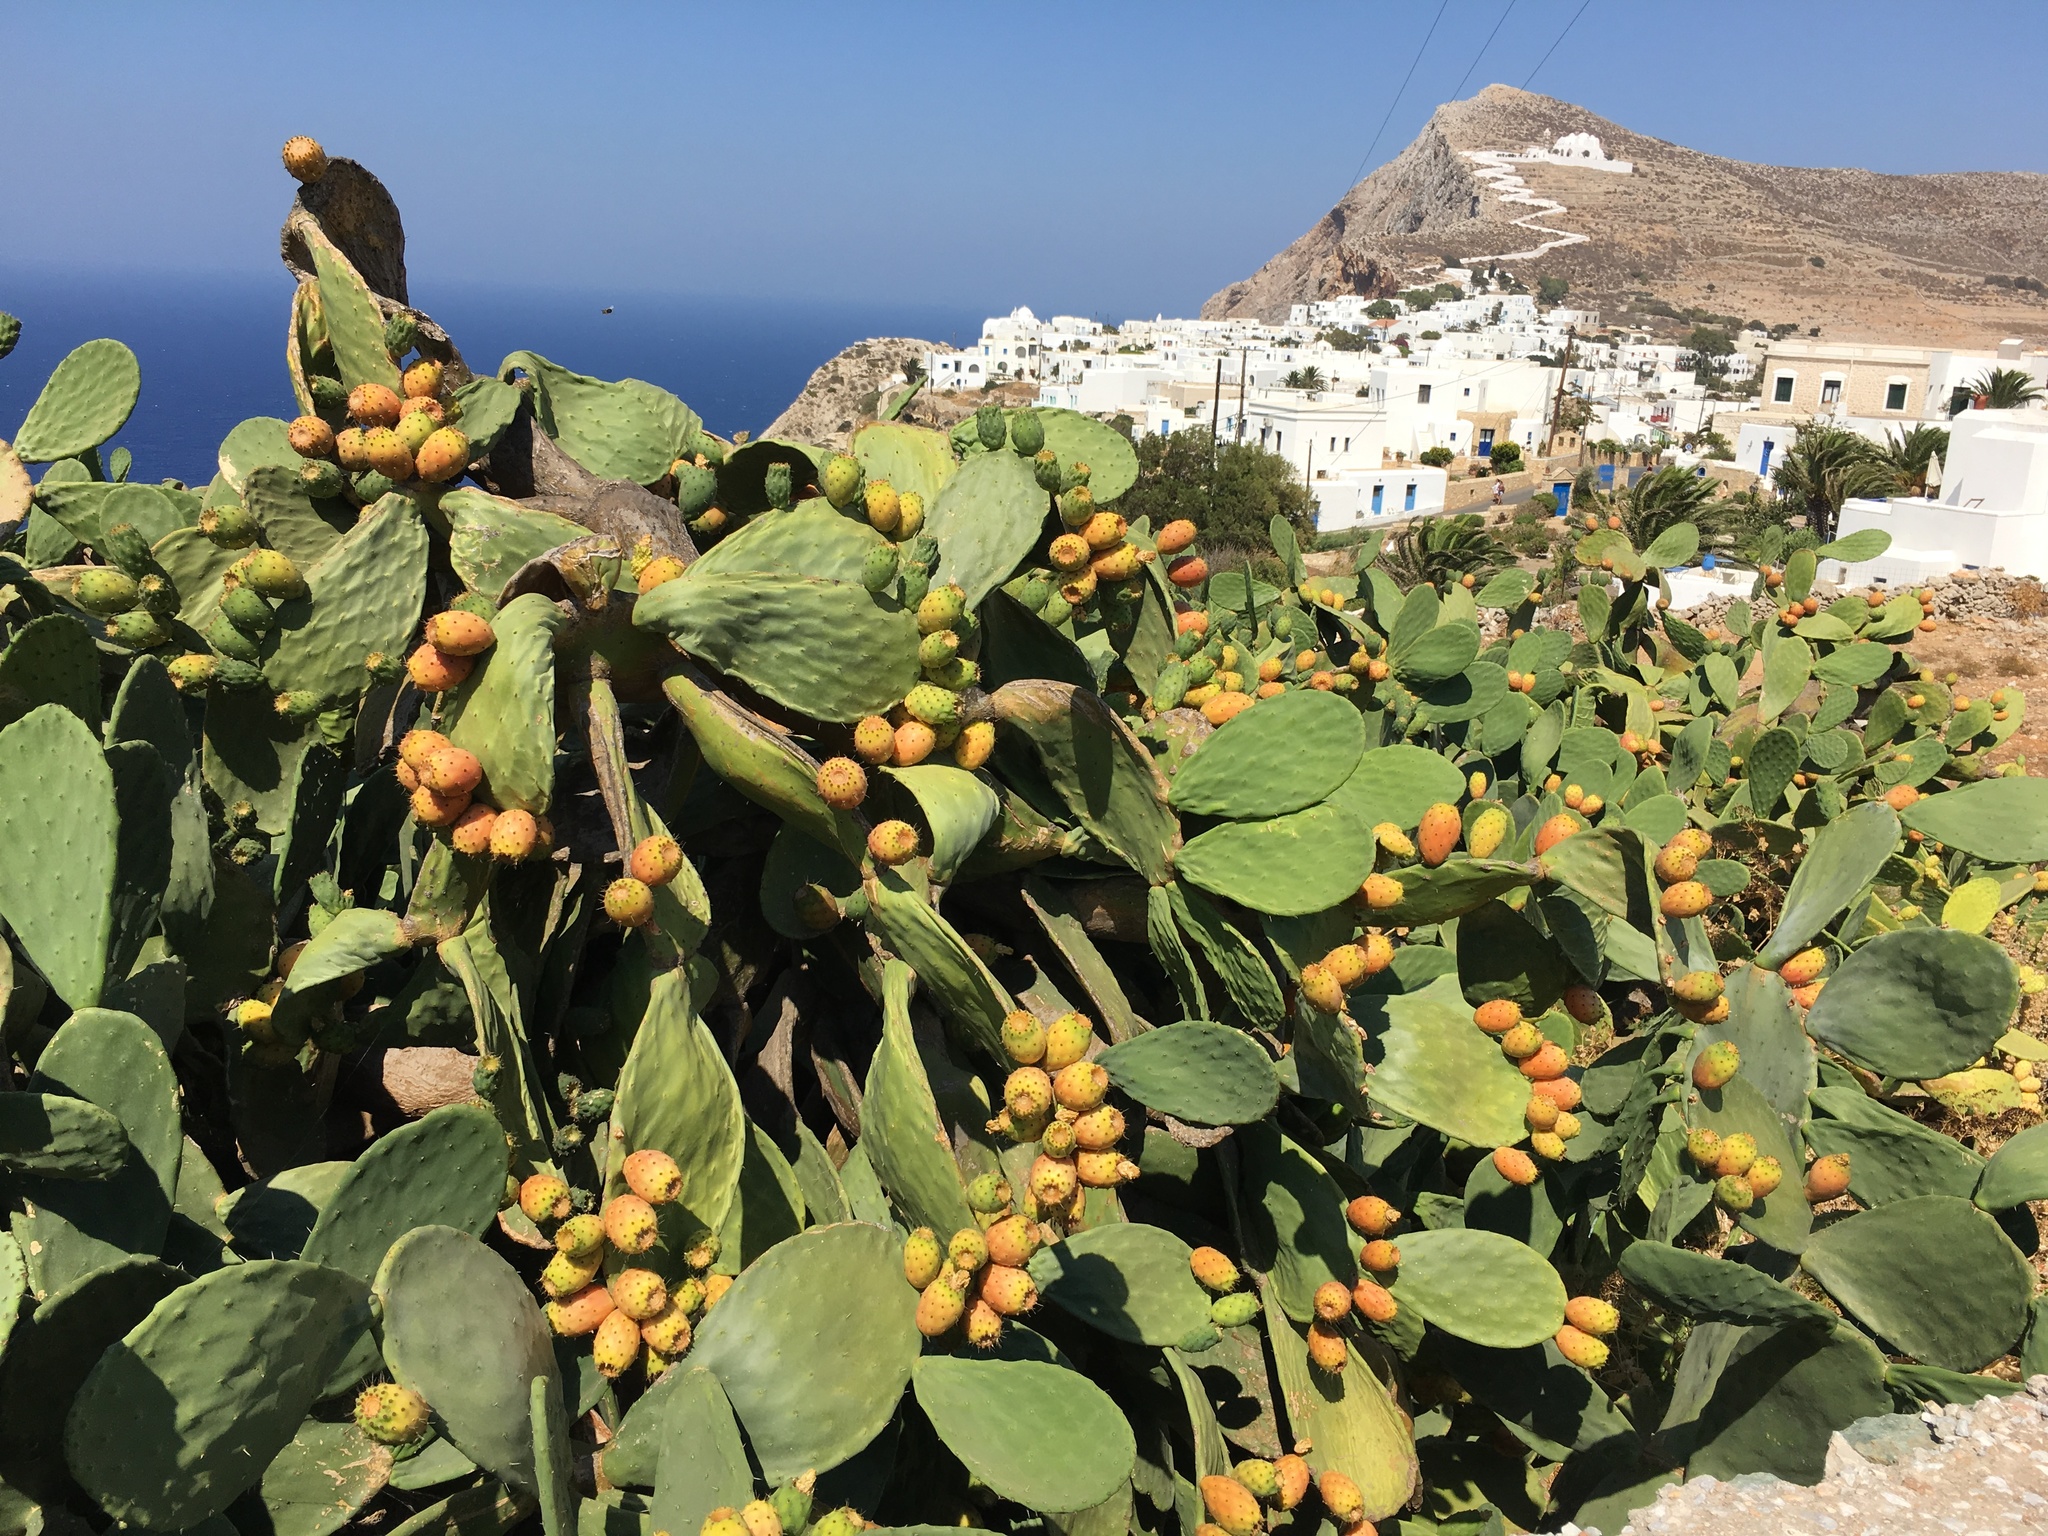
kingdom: Plantae
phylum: Tracheophyta
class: Magnoliopsida
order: Caryophyllales
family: Cactaceae
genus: Opuntia
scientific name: Opuntia ficus-indica
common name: Barbary fig
